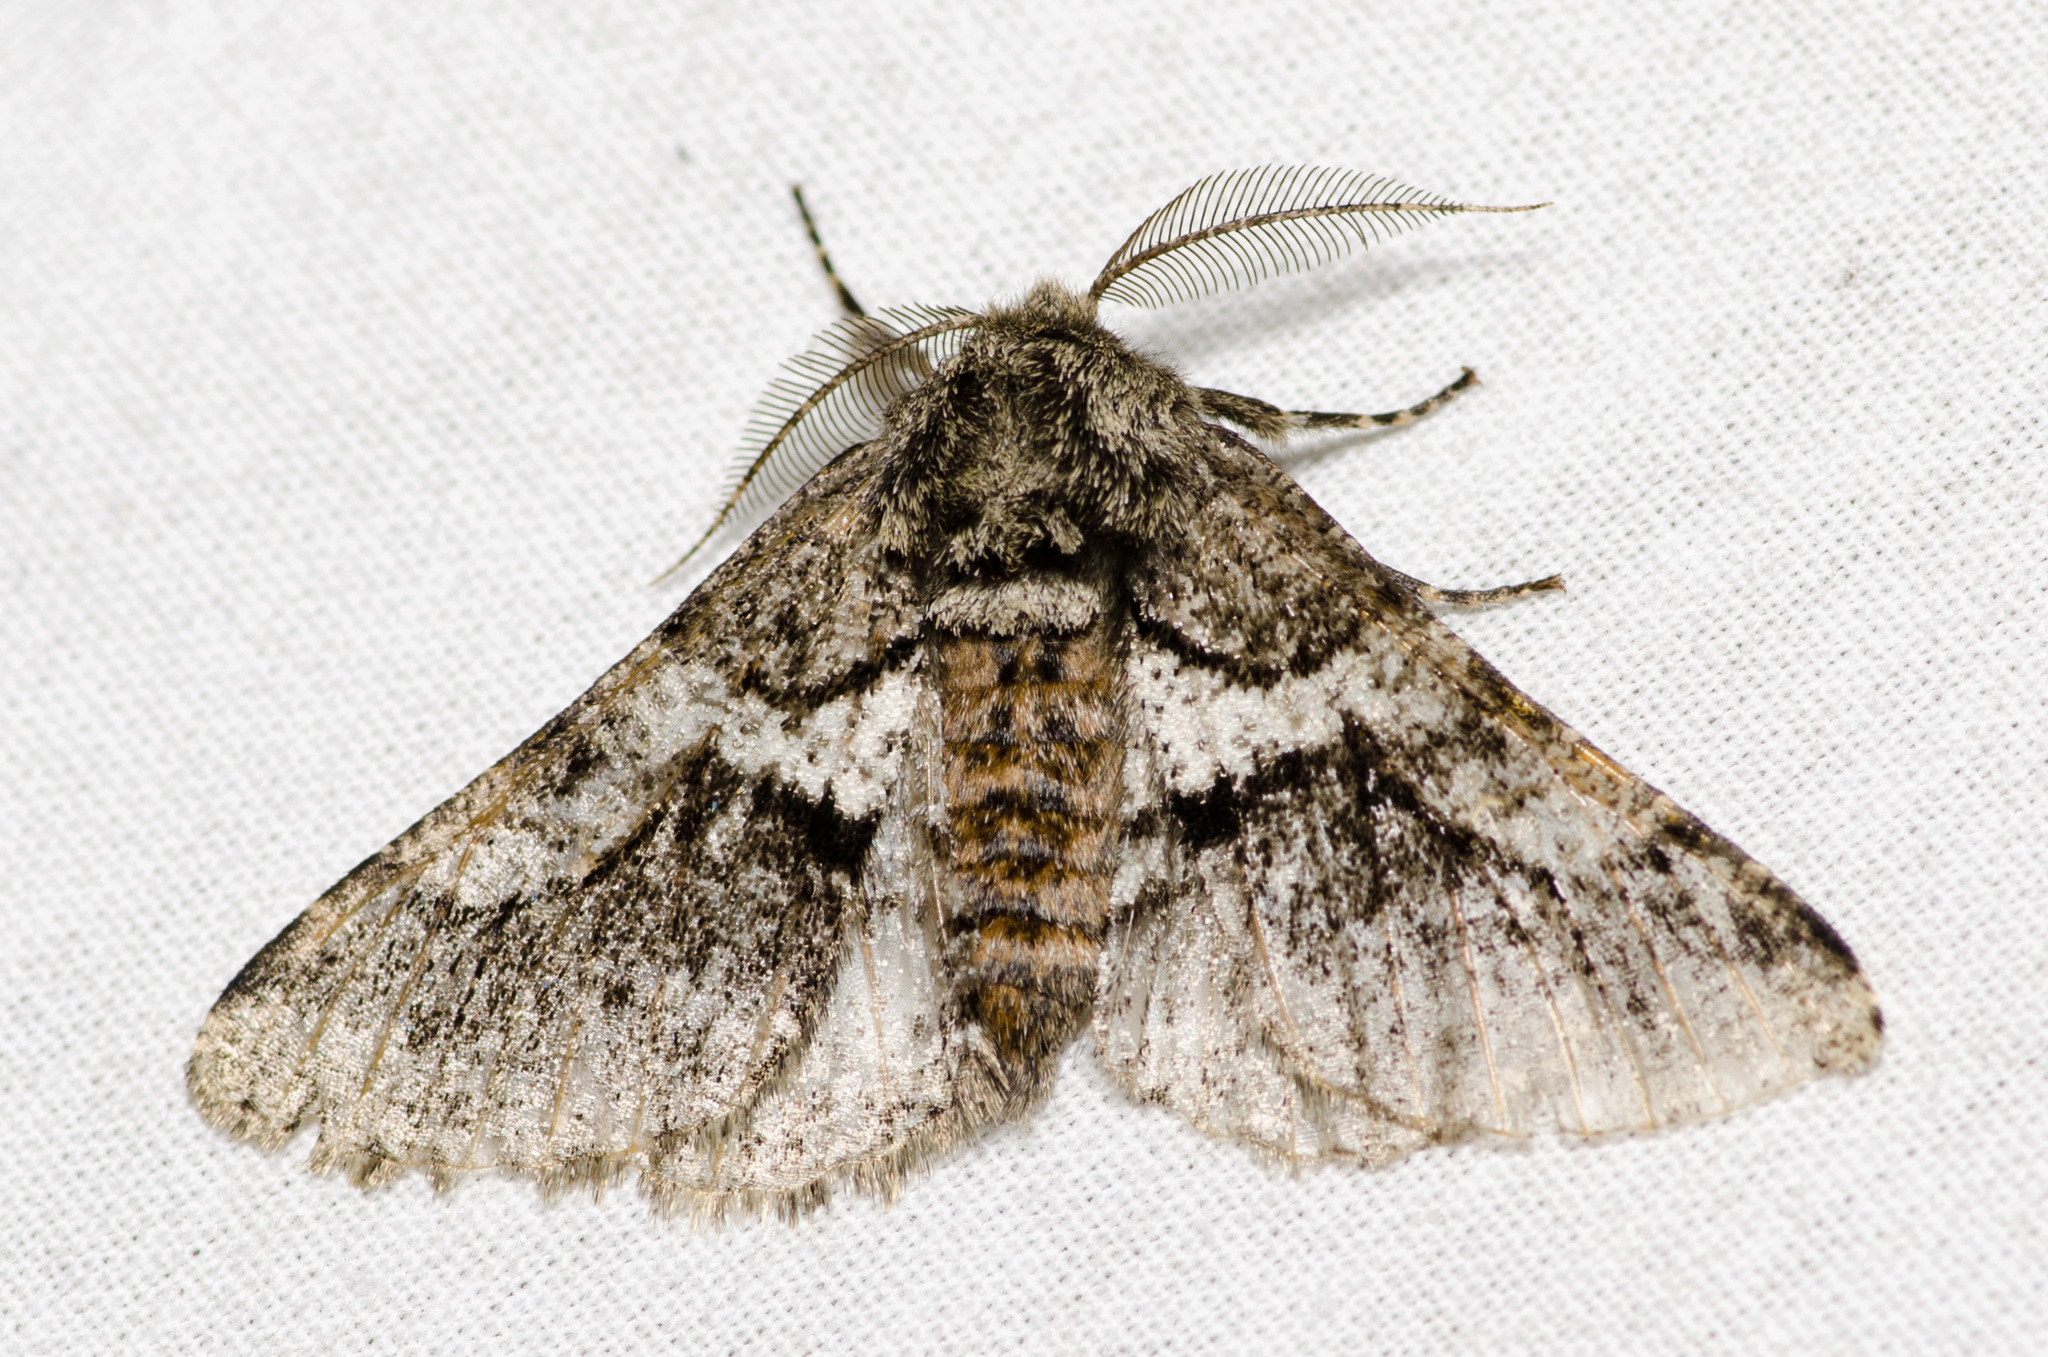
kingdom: Animalia
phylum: Arthropoda
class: Insecta
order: Lepidoptera
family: Geometridae
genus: Lycia
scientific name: Lycia ypsilon
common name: Wooly gray
